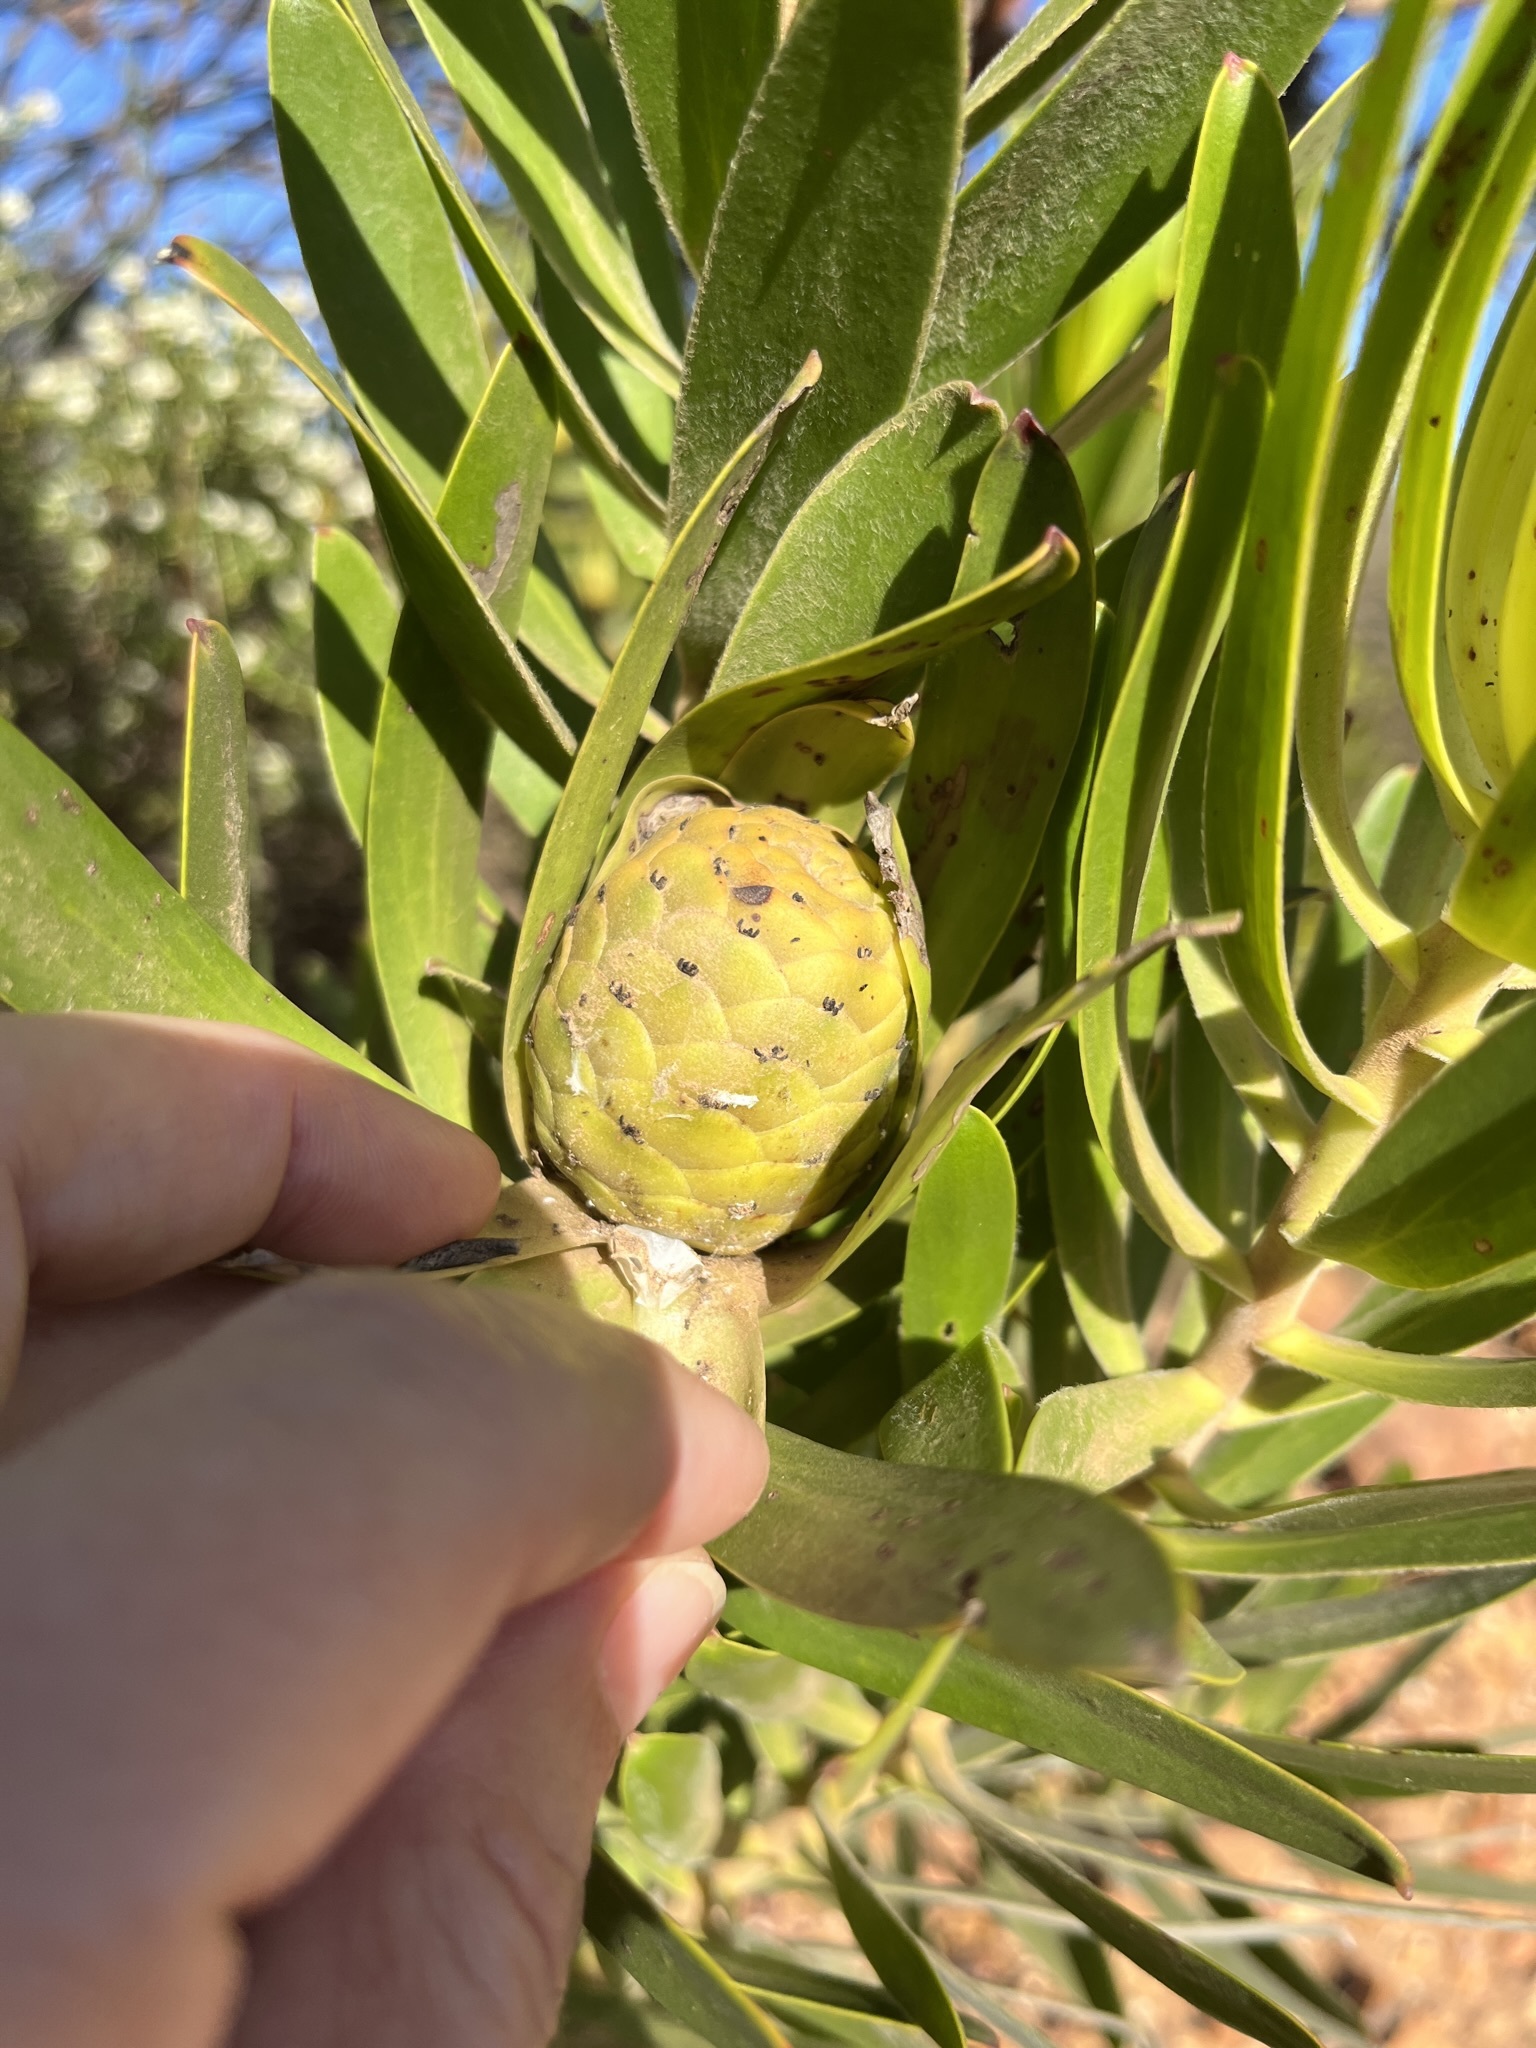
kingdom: Plantae
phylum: Tracheophyta
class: Magnoliopsida
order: Proteales
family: Proteaceae
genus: Leucadendron
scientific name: Leucadendron laureolum
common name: Golden sunshinebush
